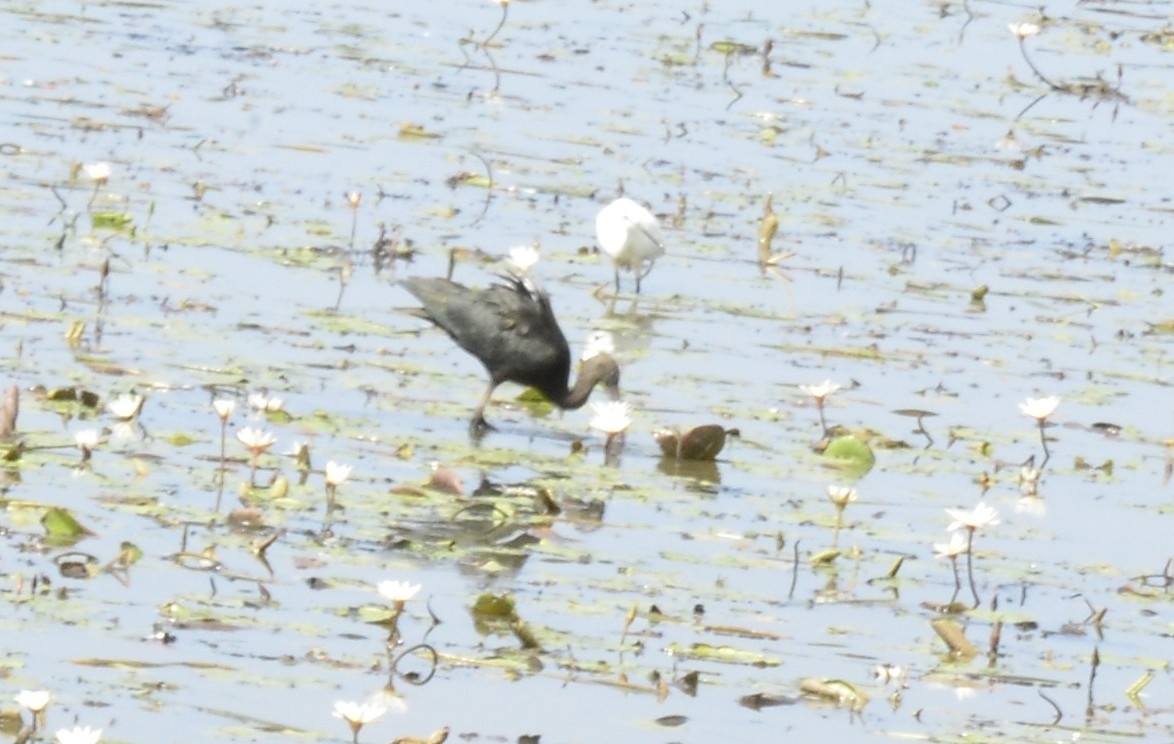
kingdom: Animalia
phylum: Chordata
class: Aves
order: Pelecaniformes
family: Threskiornithidae
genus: Plegadis
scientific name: Plegadis falcinellus
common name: Glossy ibis
